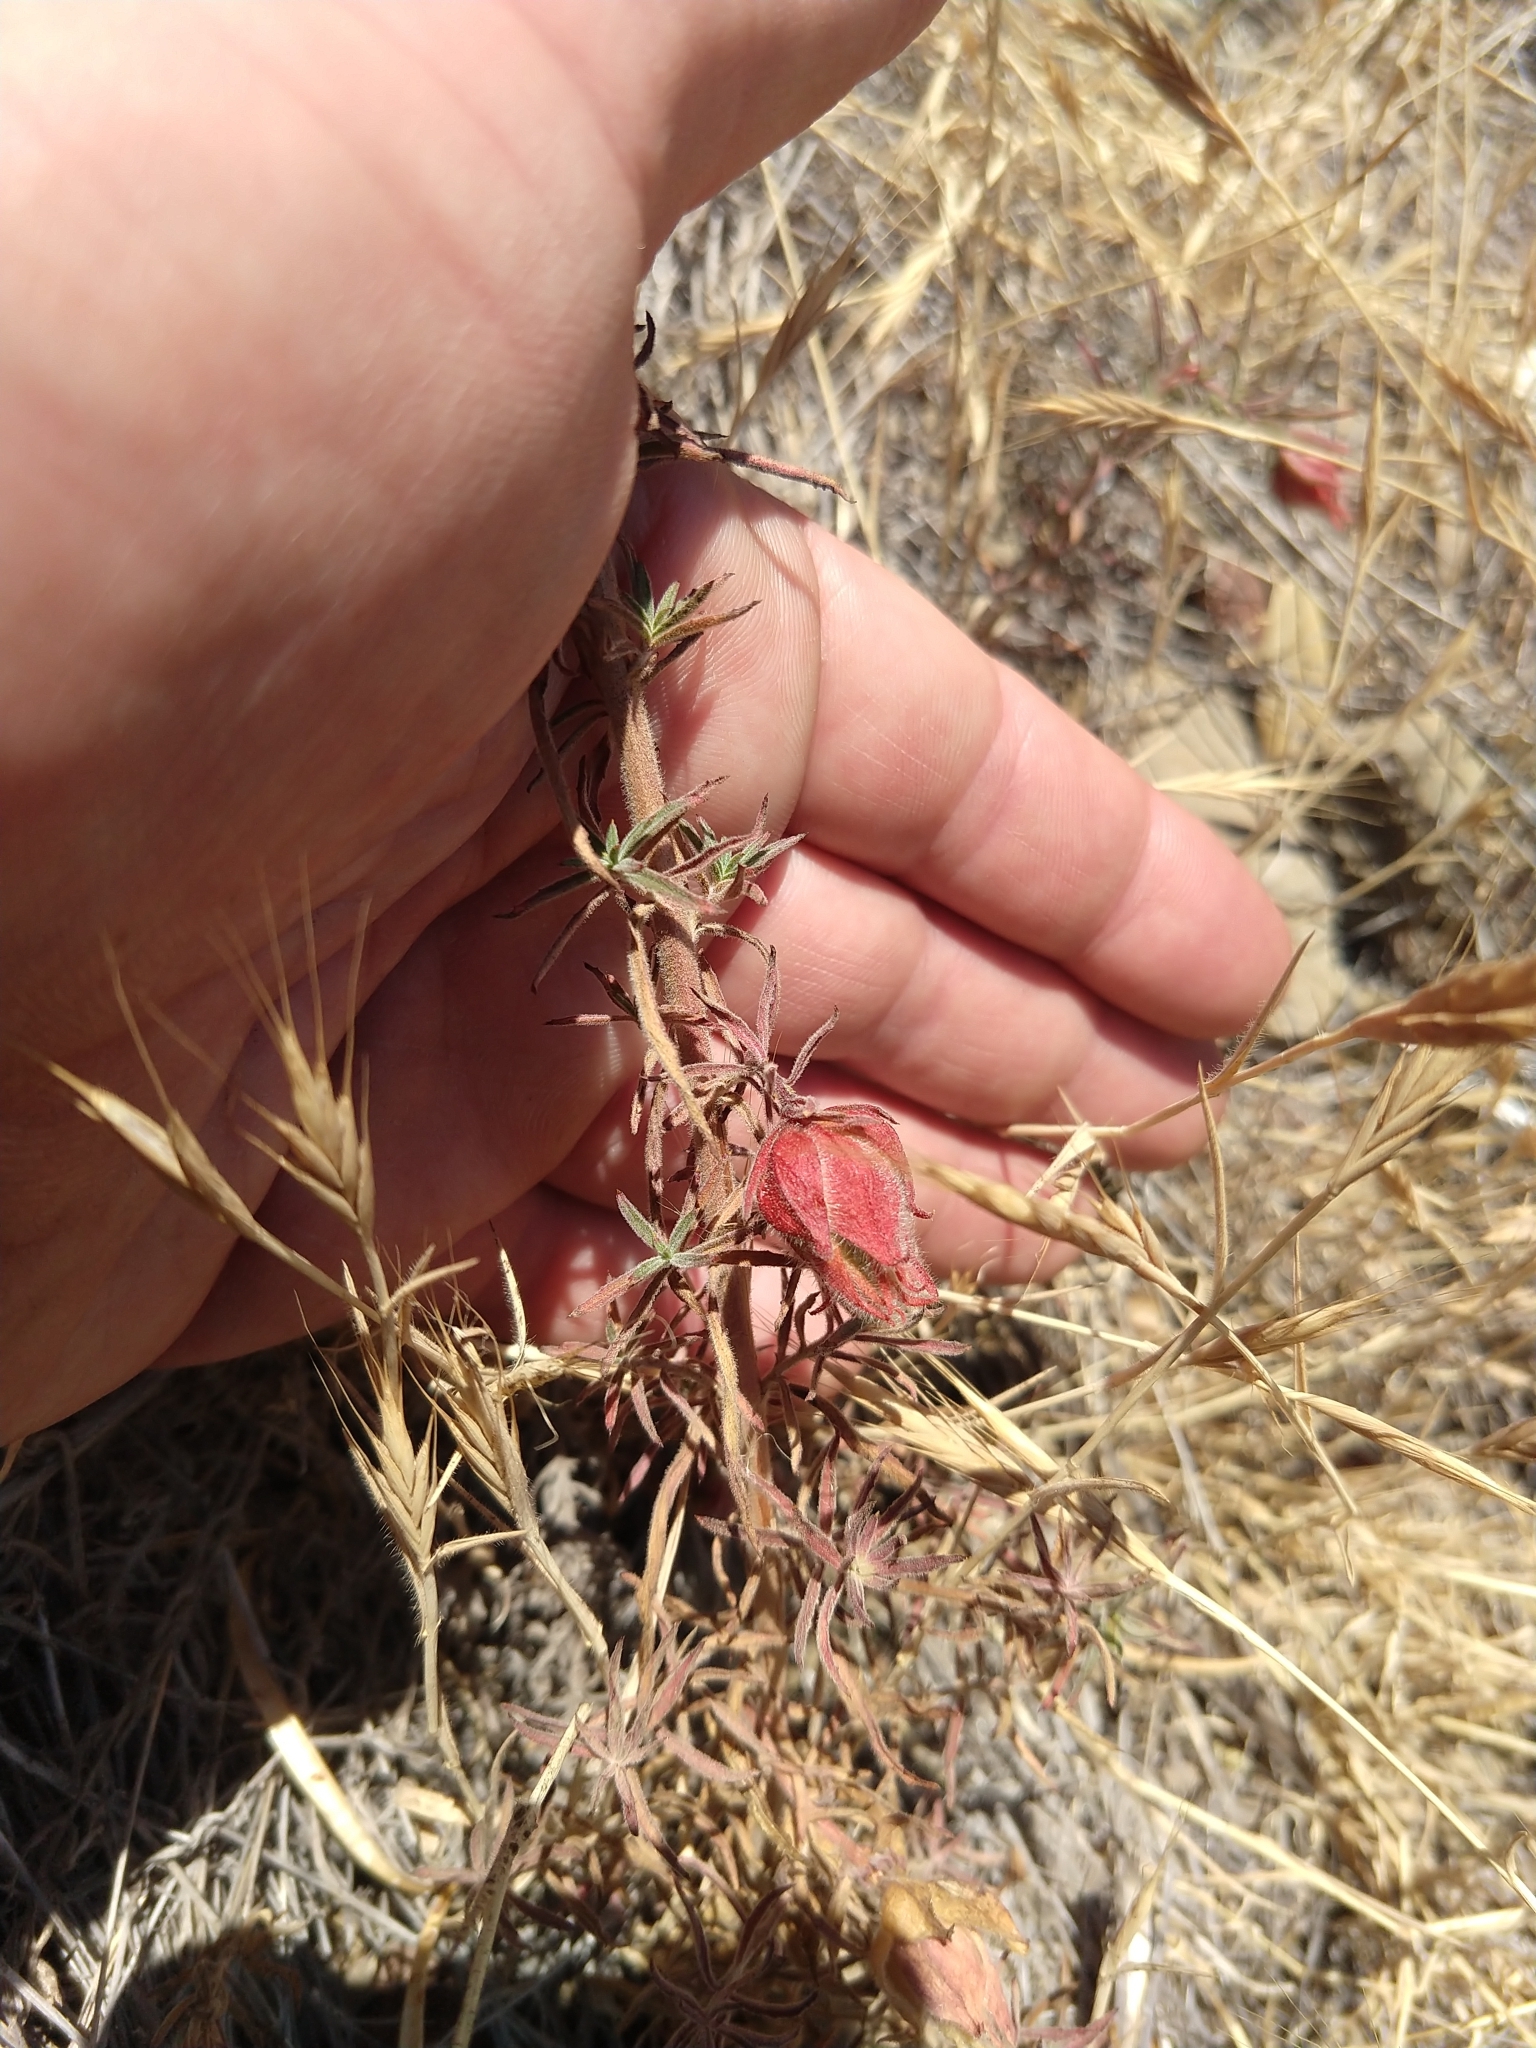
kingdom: Animalia
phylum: Arthropoda
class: Insecta
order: Diptera
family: Cecidomyiidae
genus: Contarinia
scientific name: Contarinia zauschneriae
